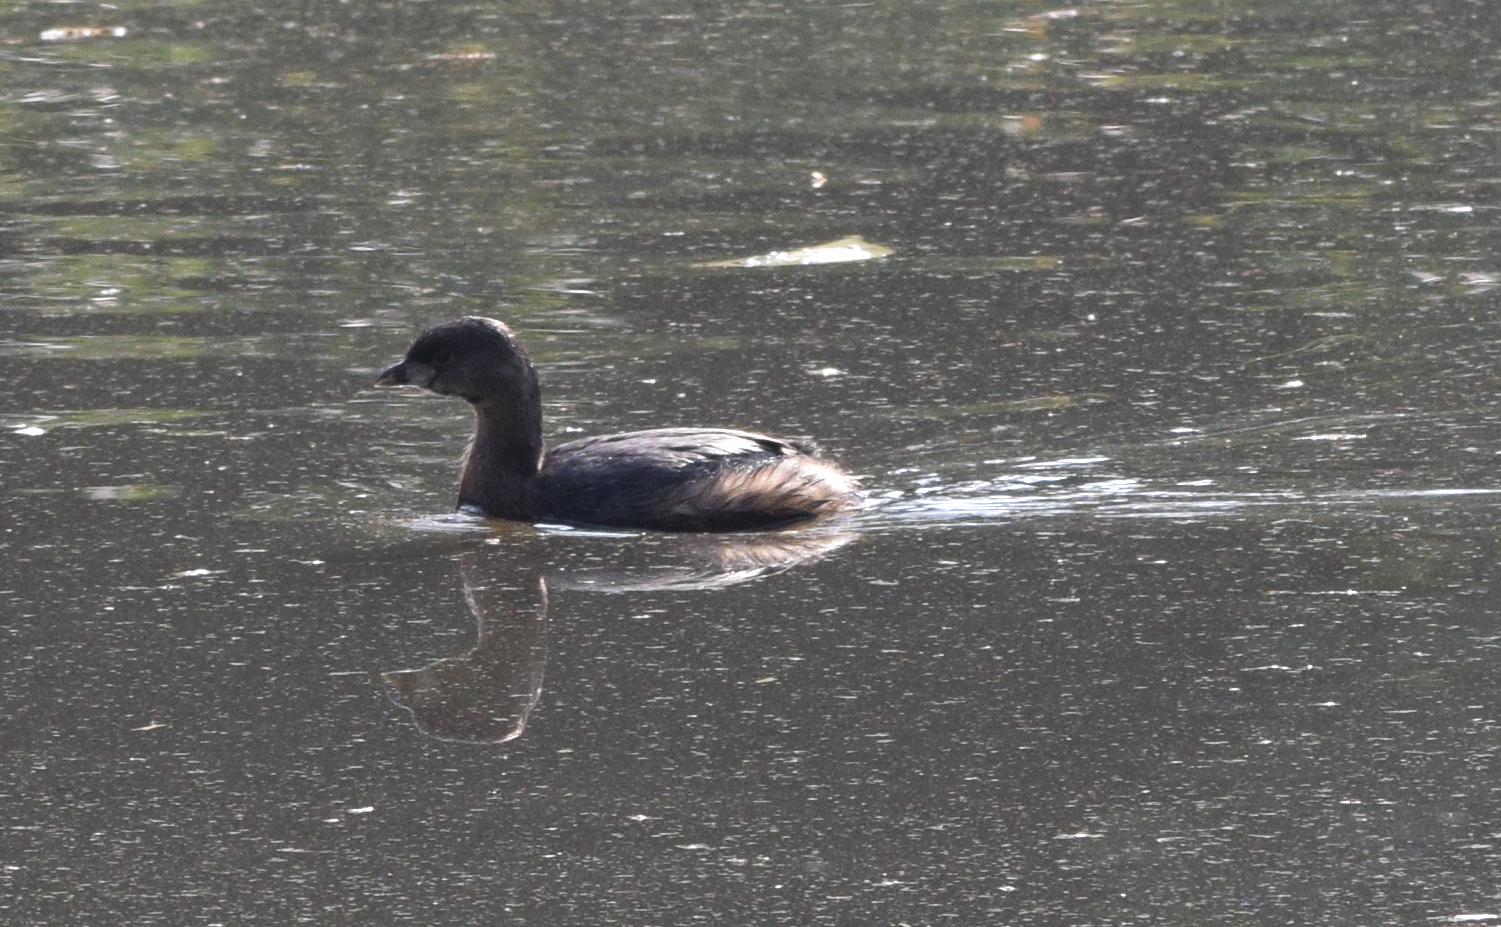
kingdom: Animalia
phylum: Chordata
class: Aves
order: Podicipediformes
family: Podicipedidae
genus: Podilymbus
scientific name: Podilymbus podiceps
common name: Pied-billed grebe
